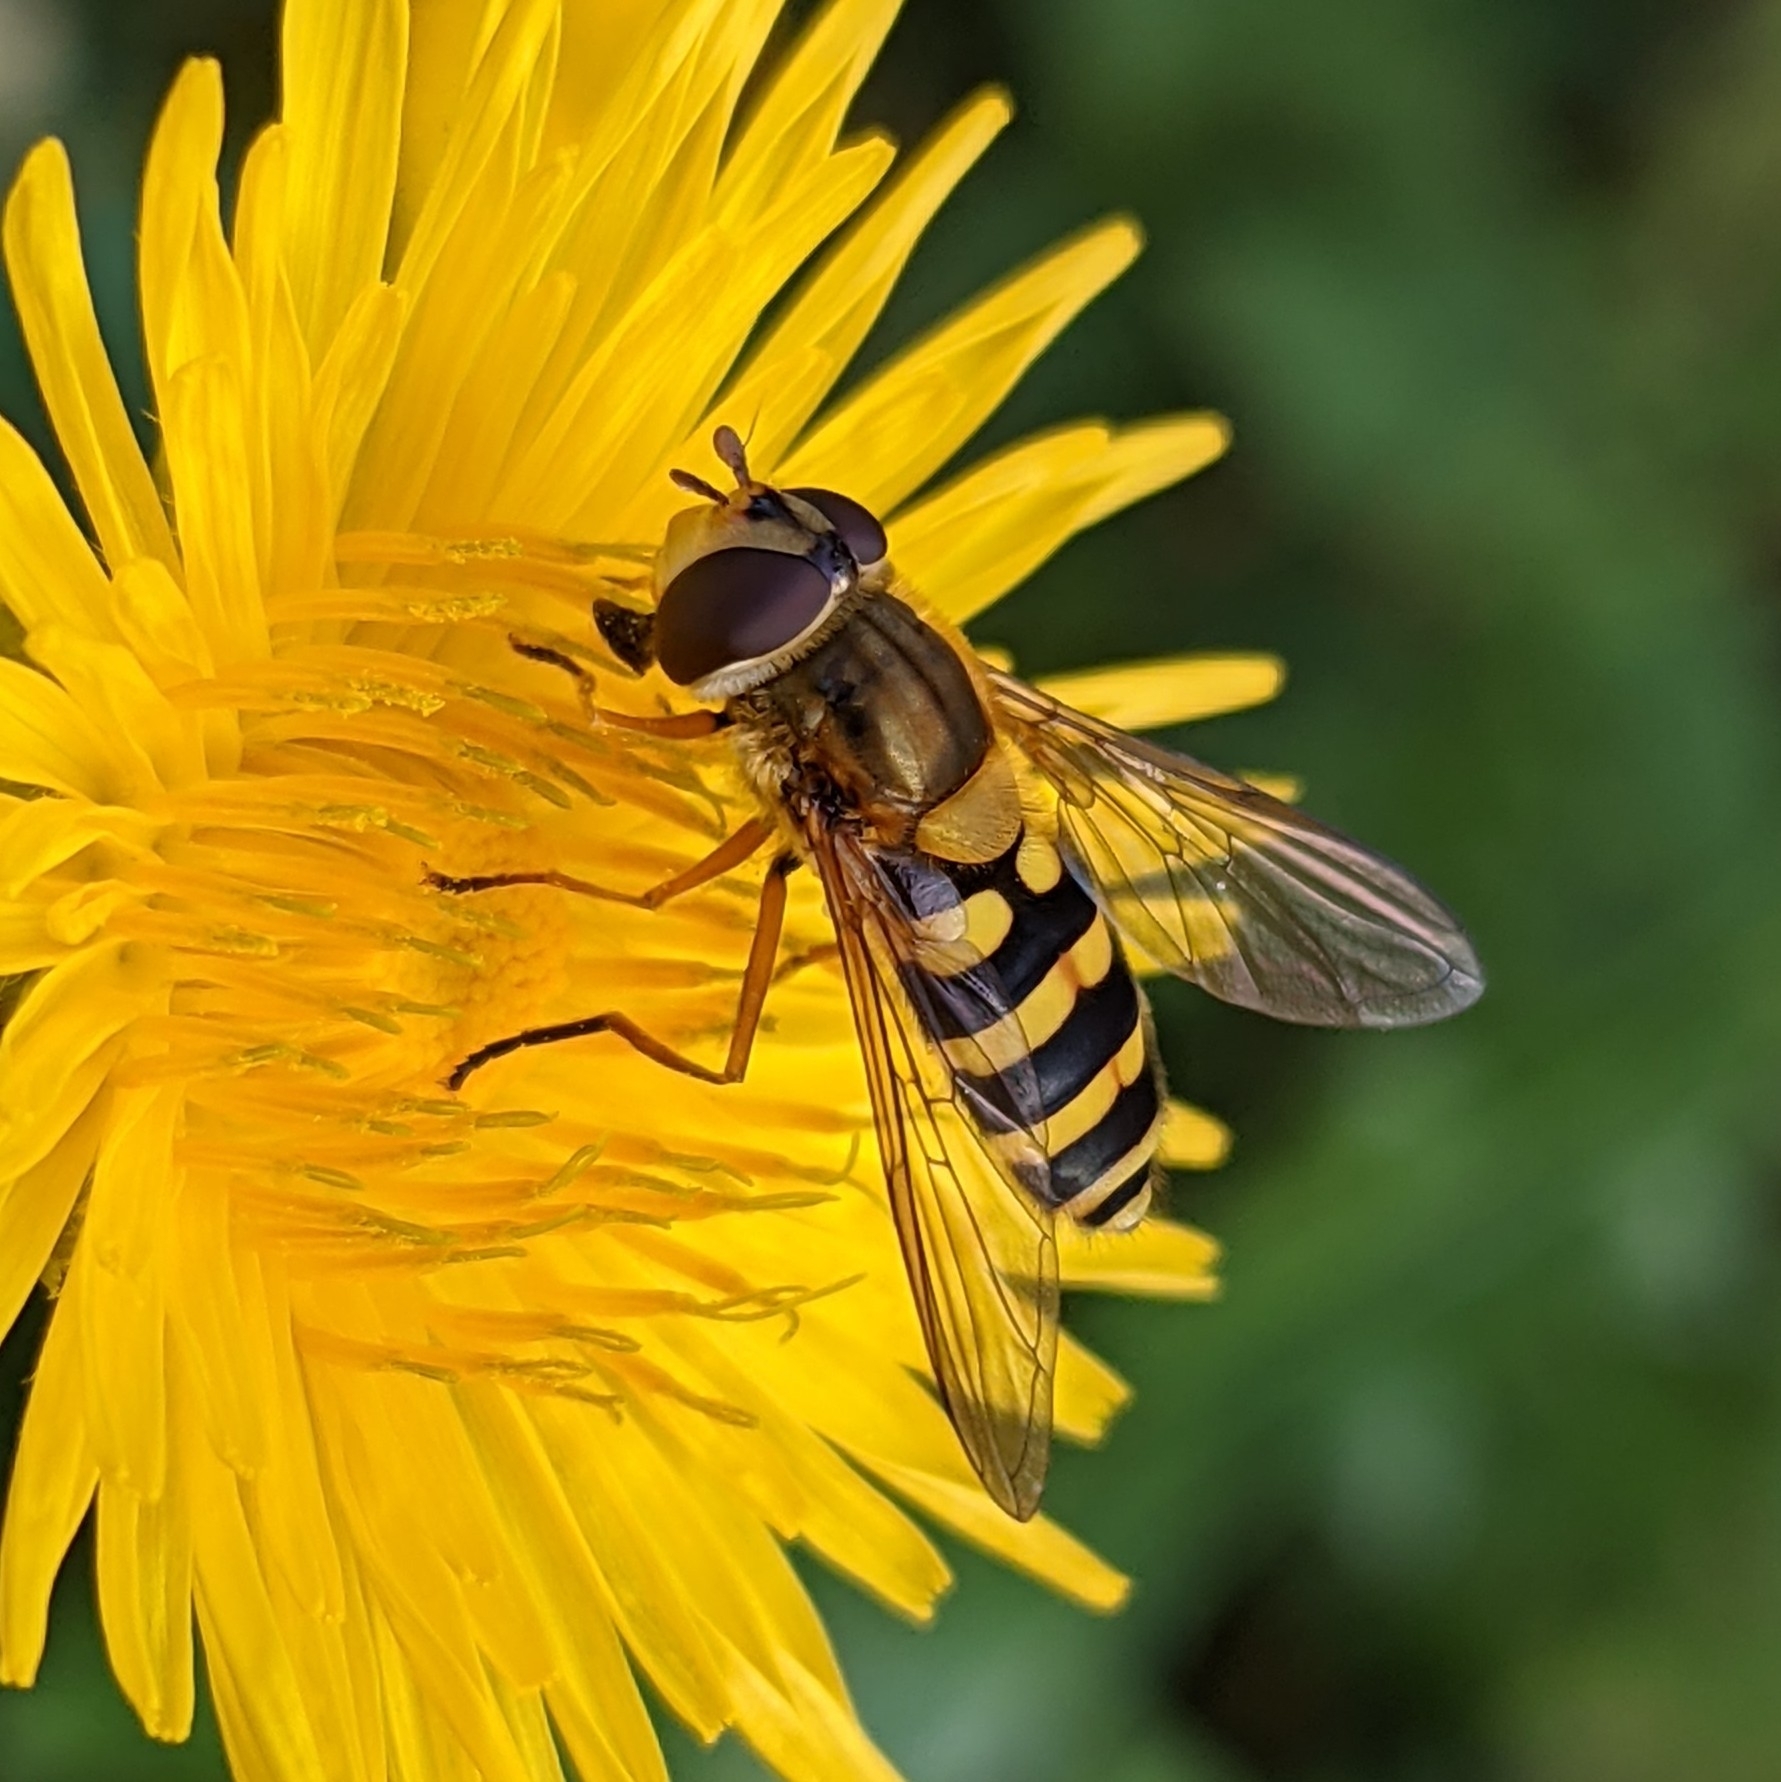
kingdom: Animalia
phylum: Arthropoda
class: Insecta
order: Diptera
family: Syrphidae
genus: Syrphus
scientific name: Syrphus ribesii
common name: Common flower fly
